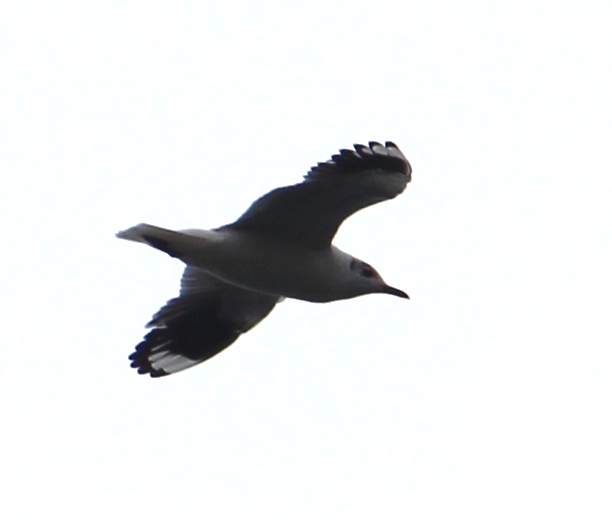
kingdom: Animalia
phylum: Chordata
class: Aves
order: Charadriiformes
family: Laridae
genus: Chroicocephalus
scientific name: Chroicocephalus serranus
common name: Andean gull
